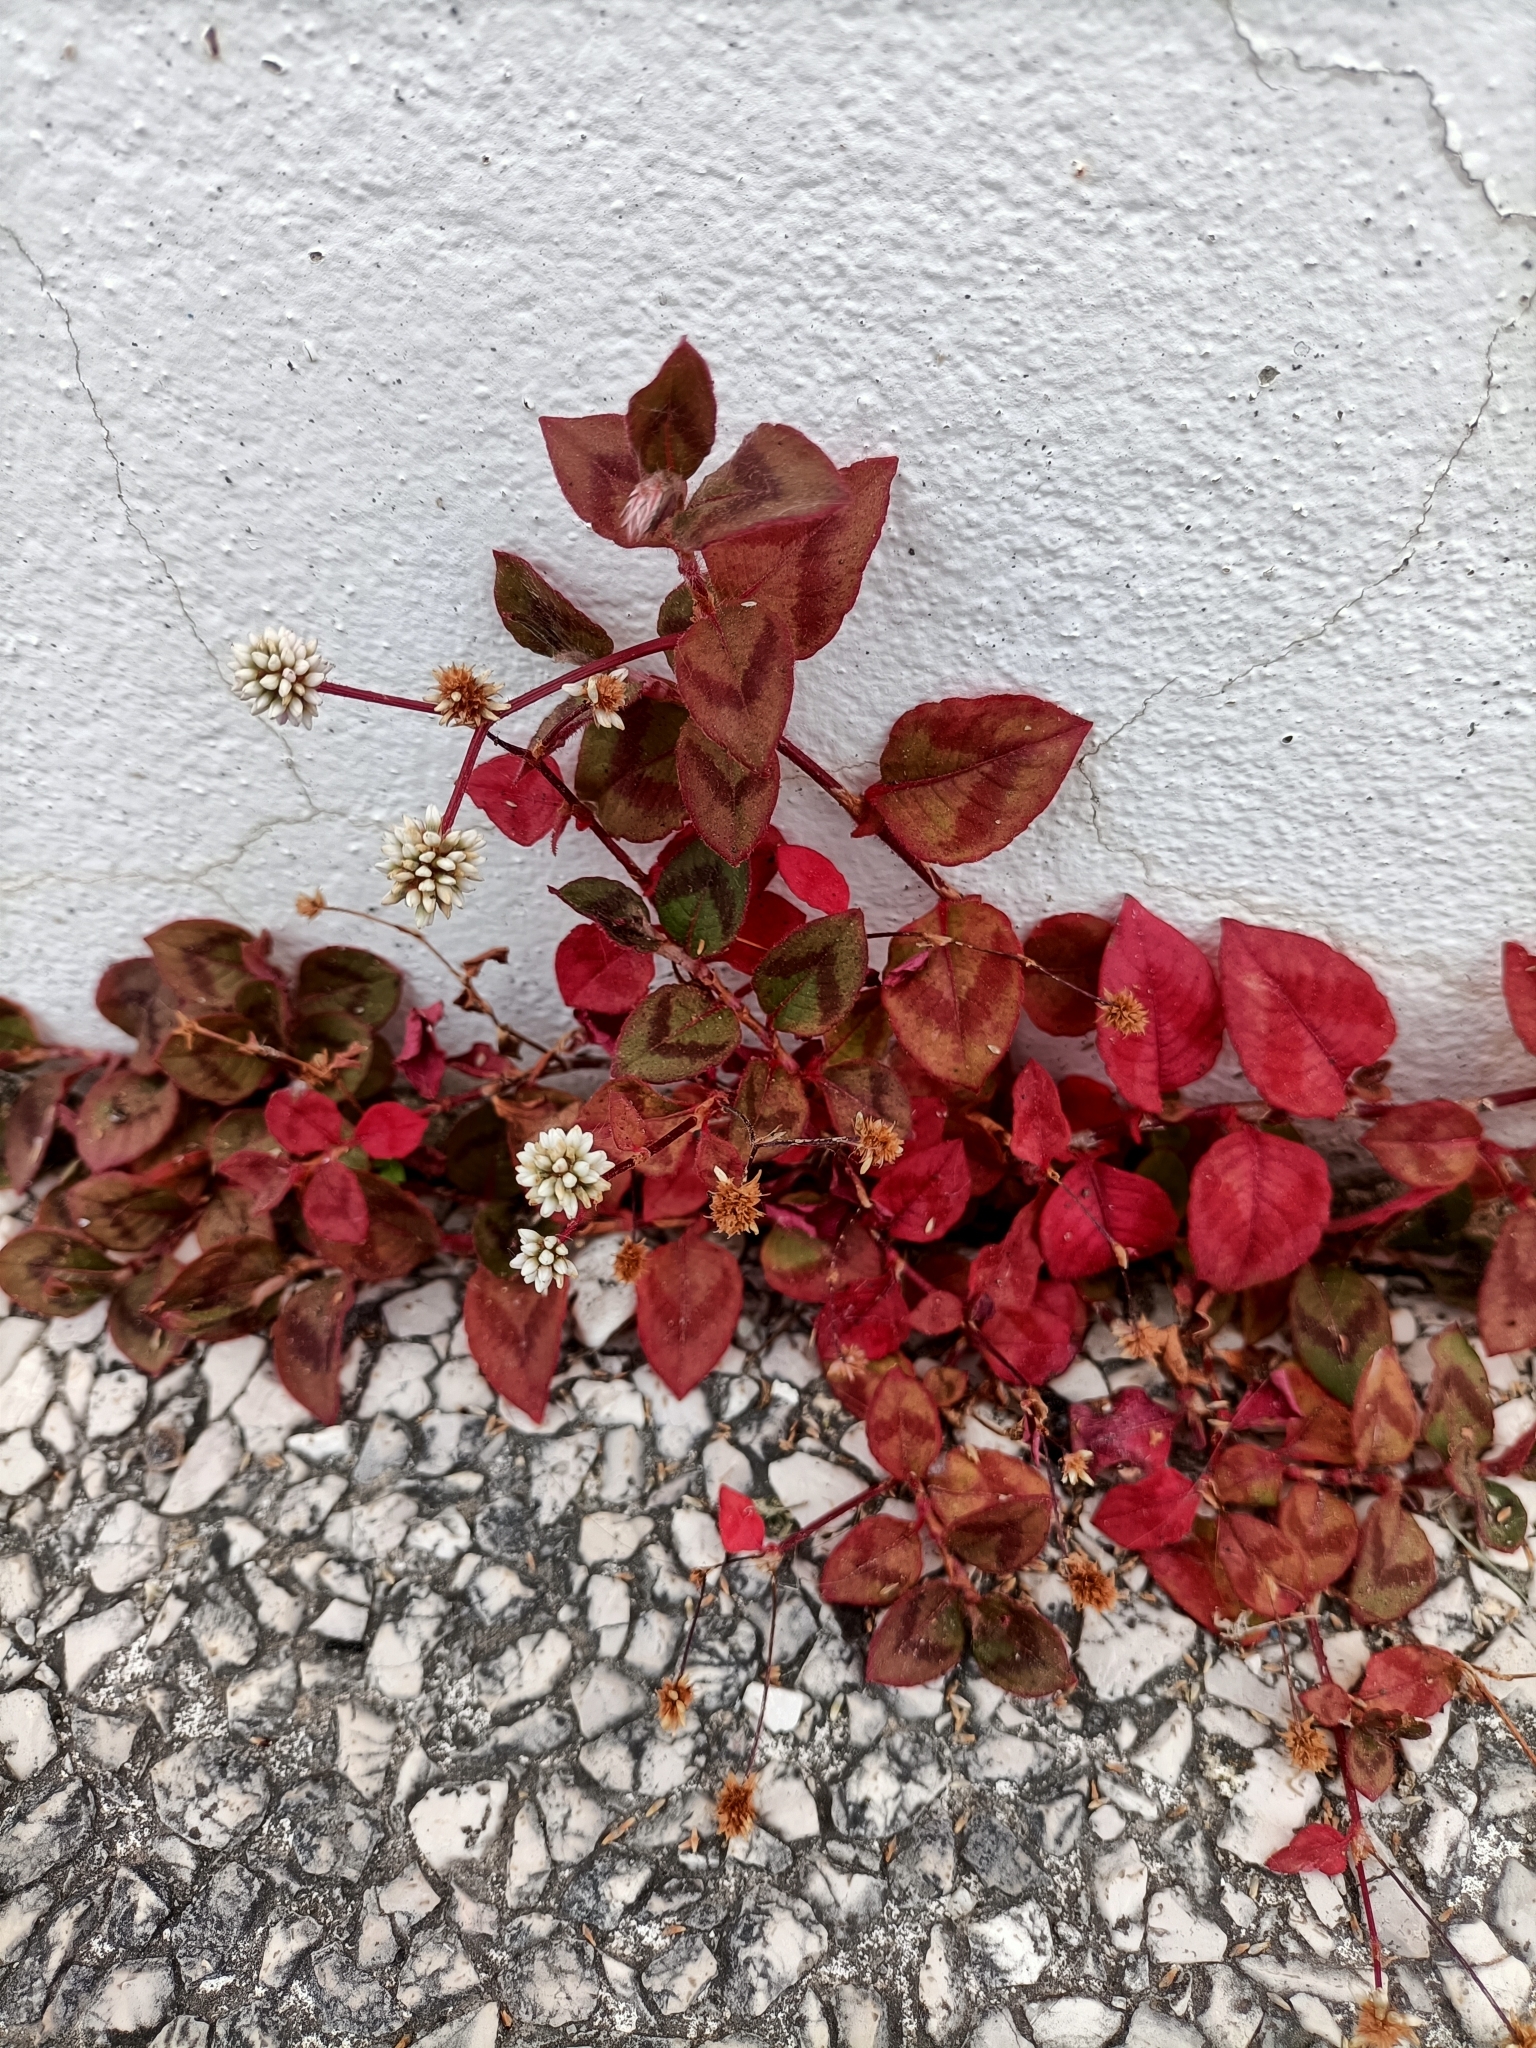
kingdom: Plantae
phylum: Tracheophyta
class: Magnoliopsida
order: Caryophyllales
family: Polygonaceae
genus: Persicaria
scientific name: Persicaria capitata
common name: Pinkhead smartweed
